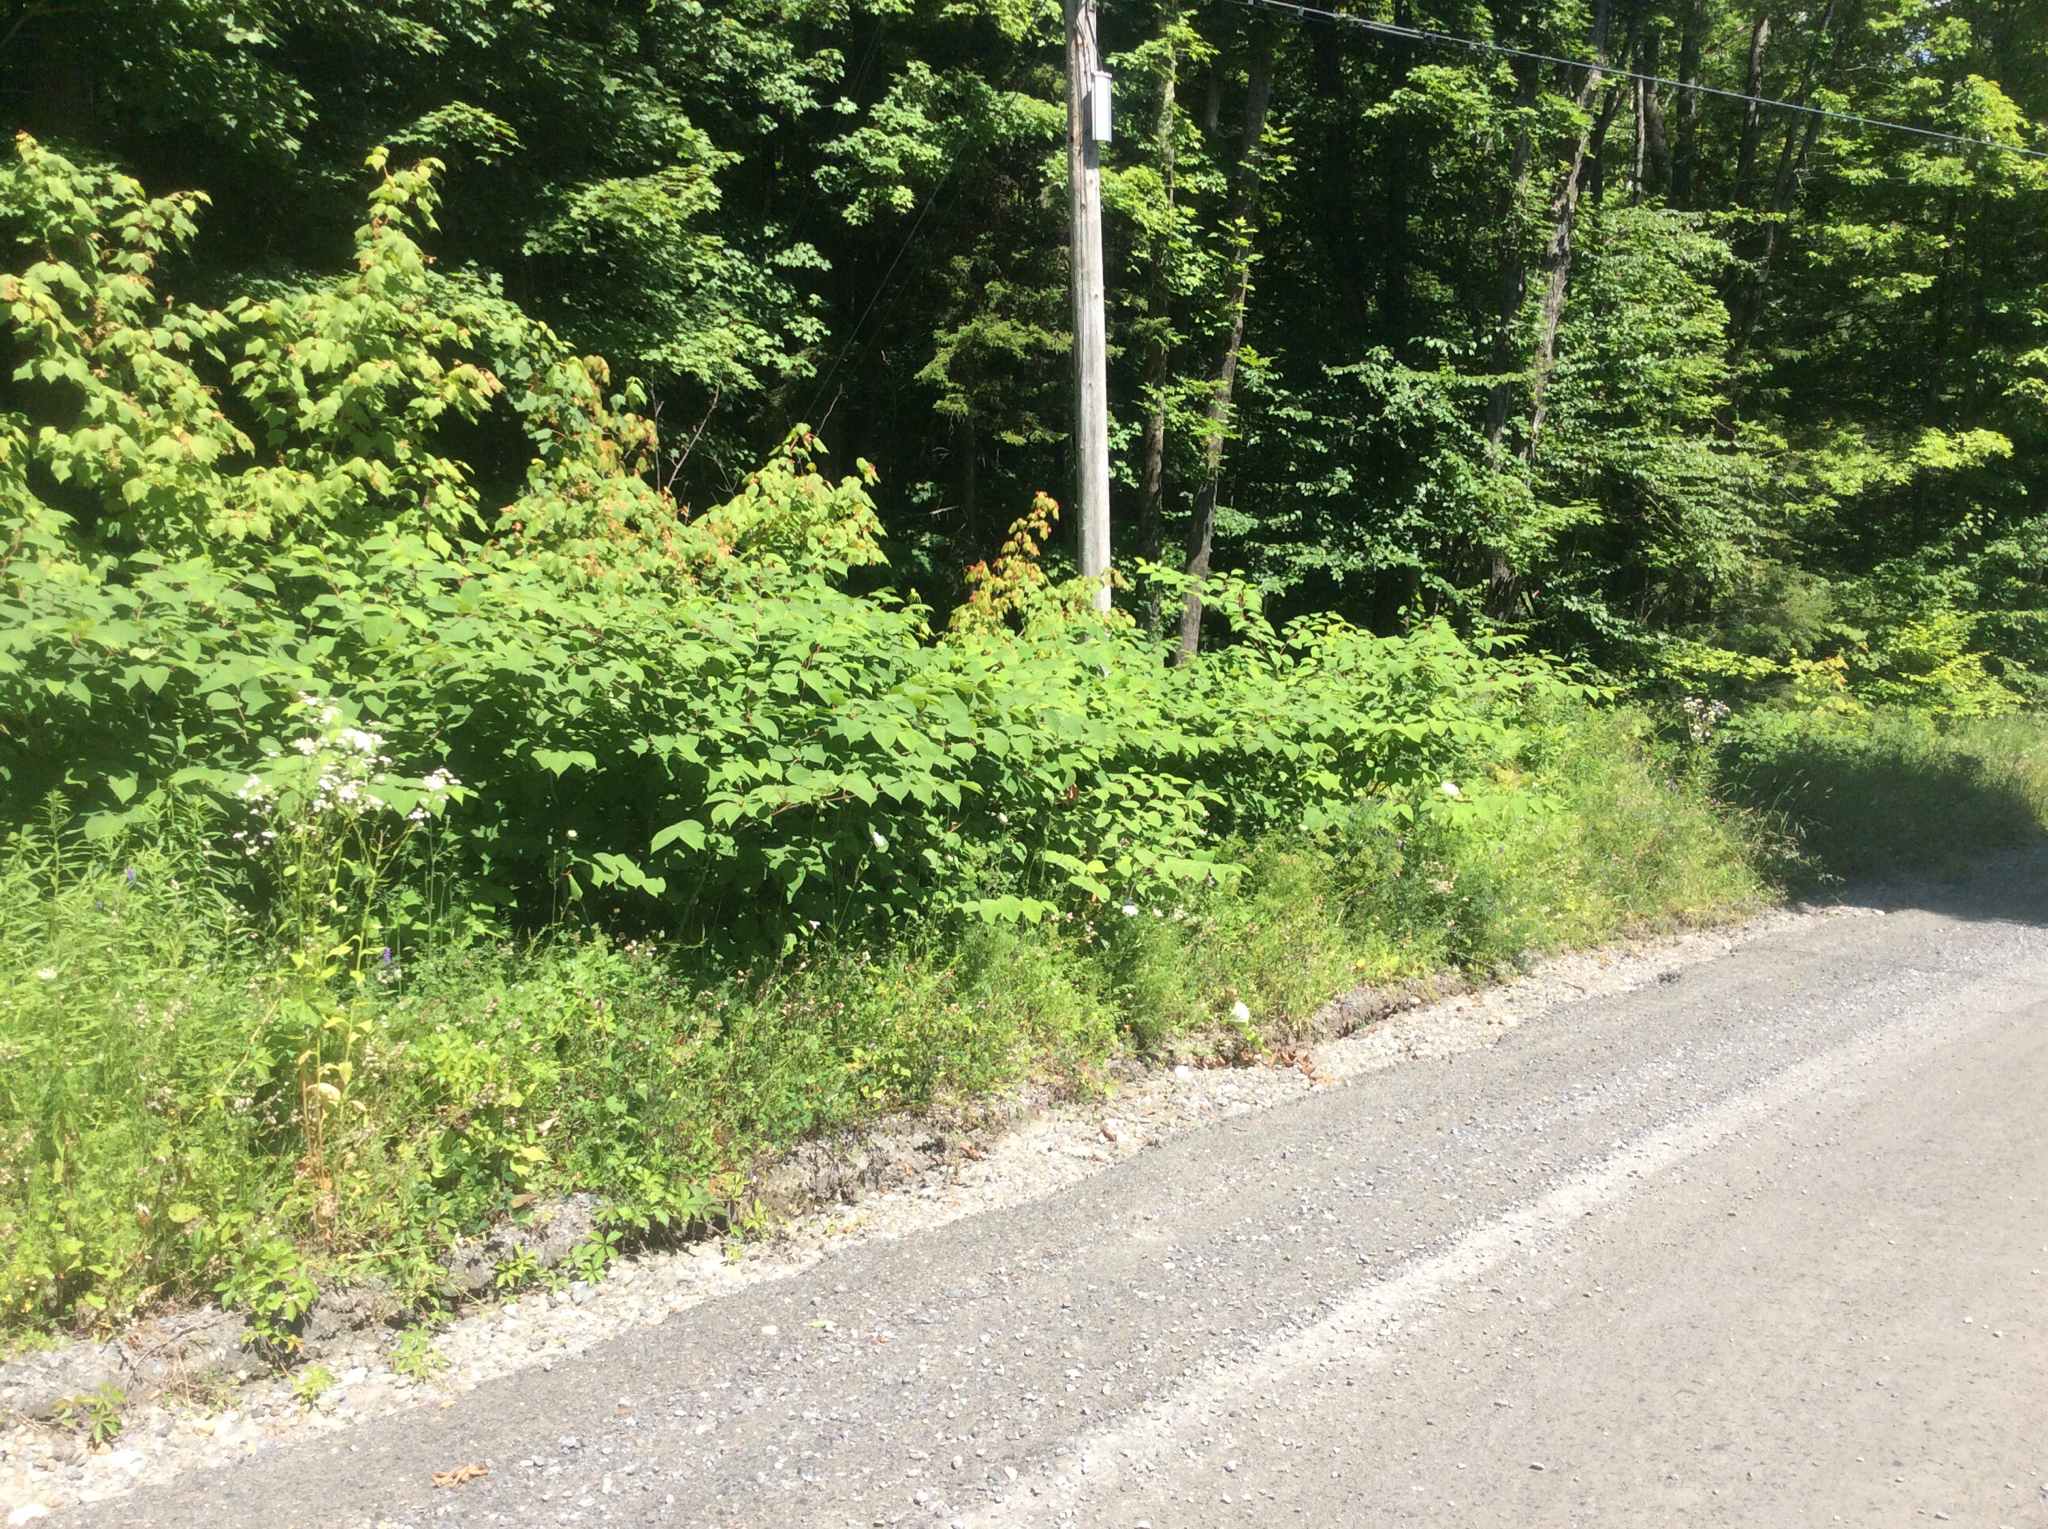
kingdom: Plantae
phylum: Tracheophyta
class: Magnoliopsida
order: Caryophyllales
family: Polygonaceae
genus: Reynoutria
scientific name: Reynoutria japonica
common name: Japanese knotweed
